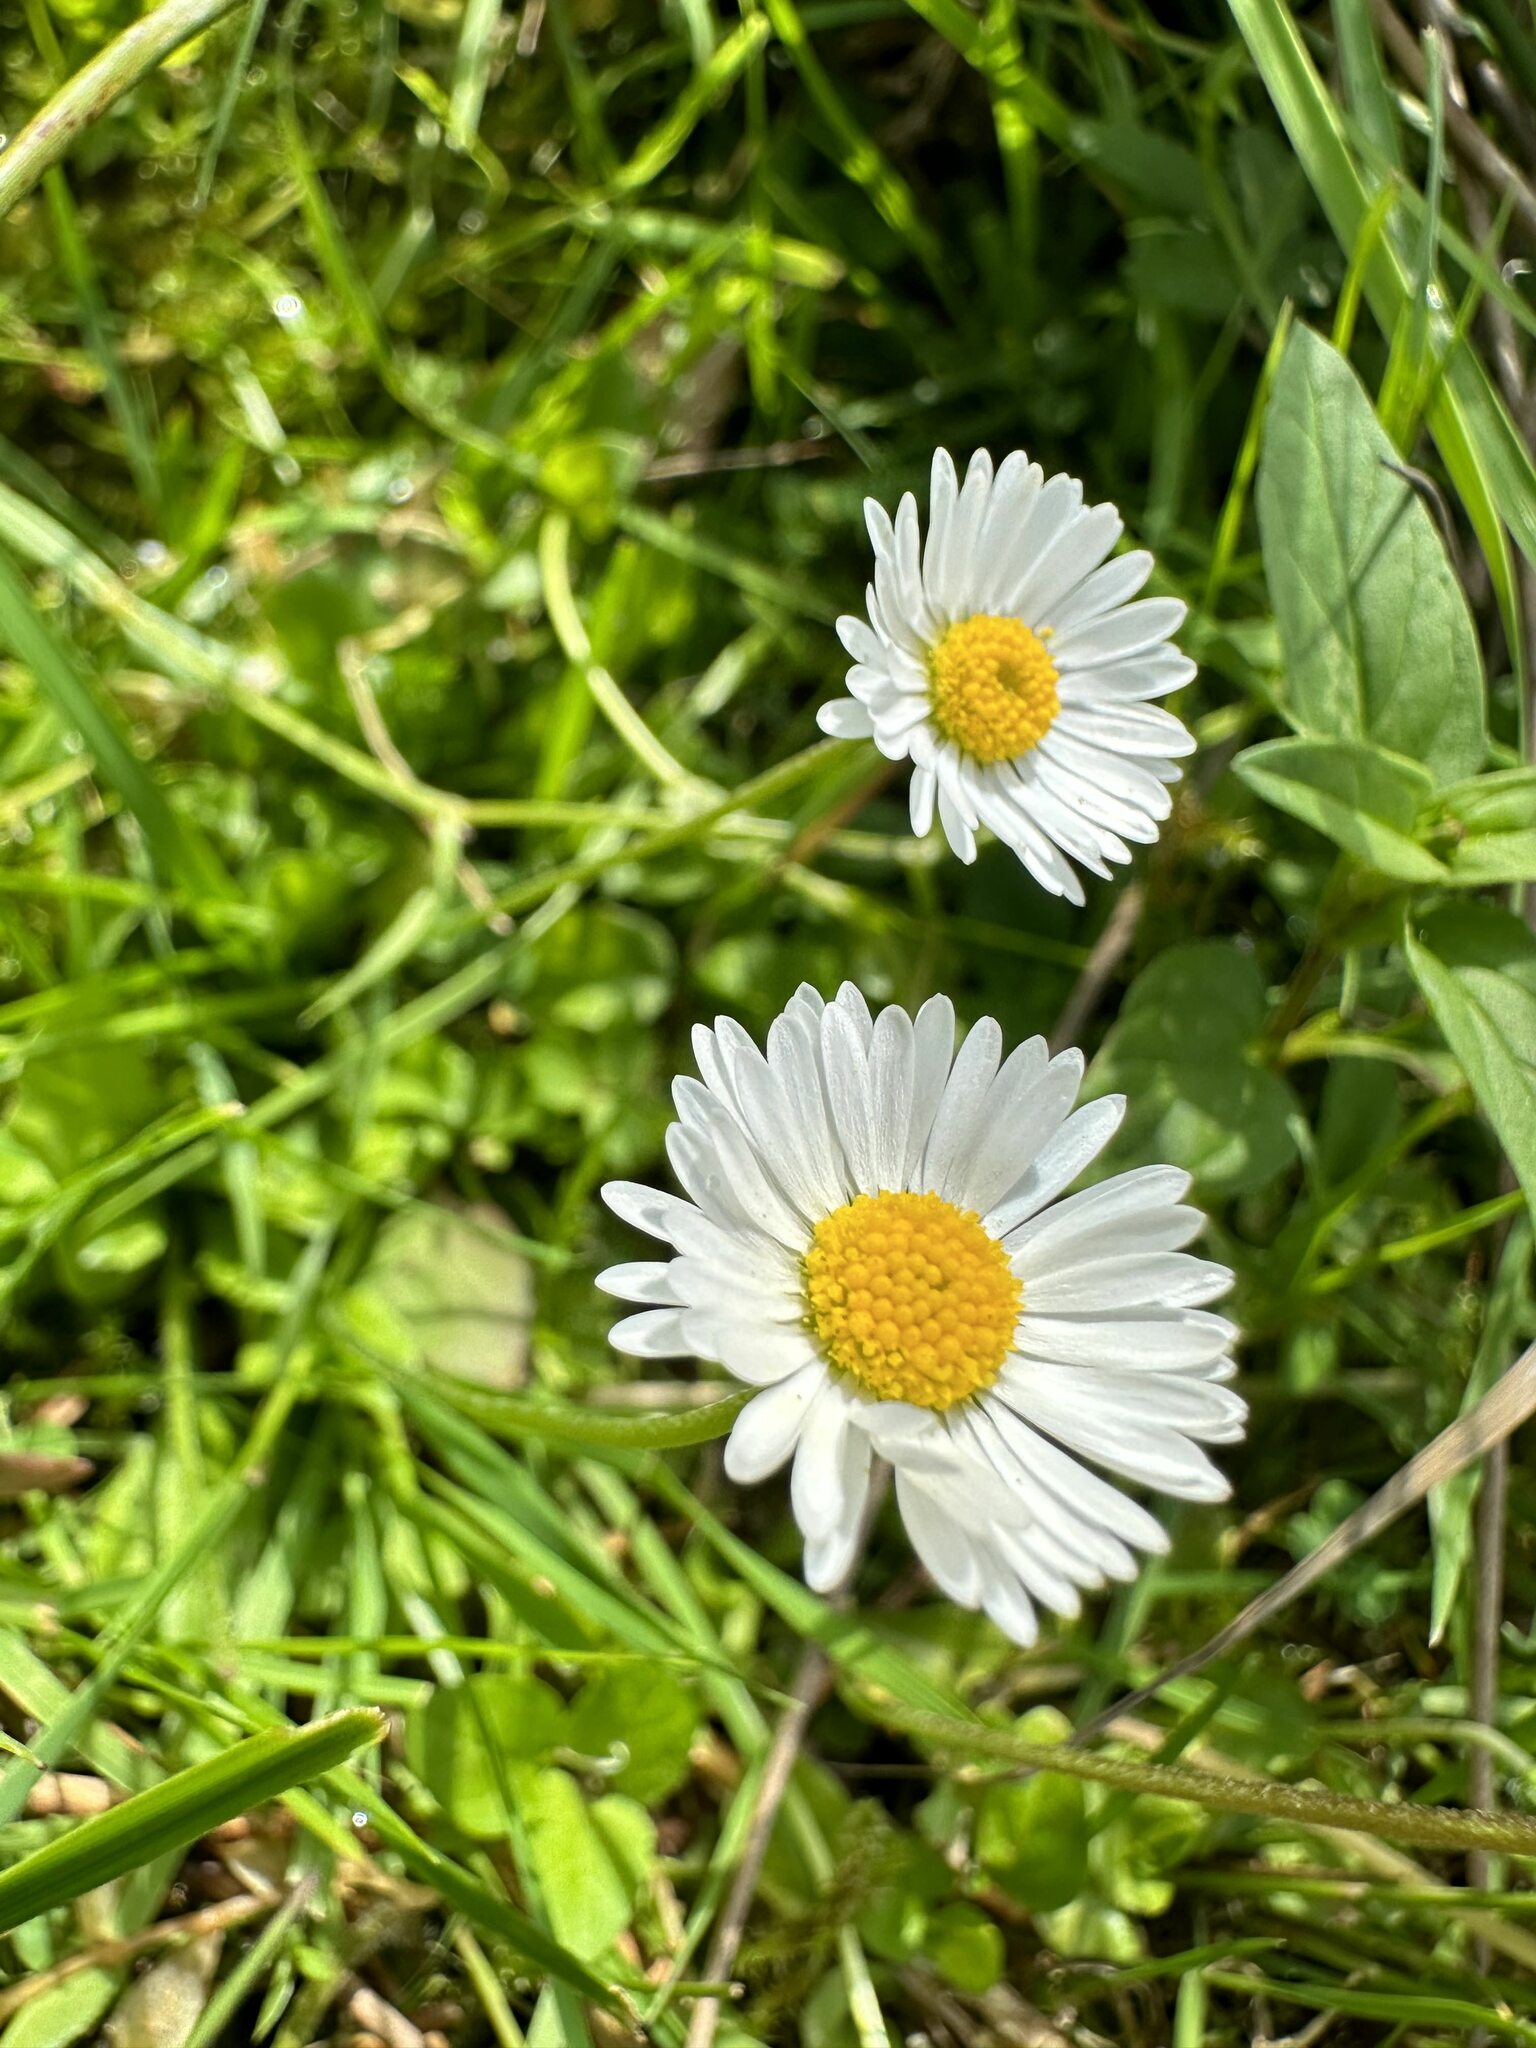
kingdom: Plantae
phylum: Tracheophyta
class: Magnoliopsida
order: Asterales
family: Asteraceae
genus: Bellis
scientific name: Bellis perennis
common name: Lawndaisy
